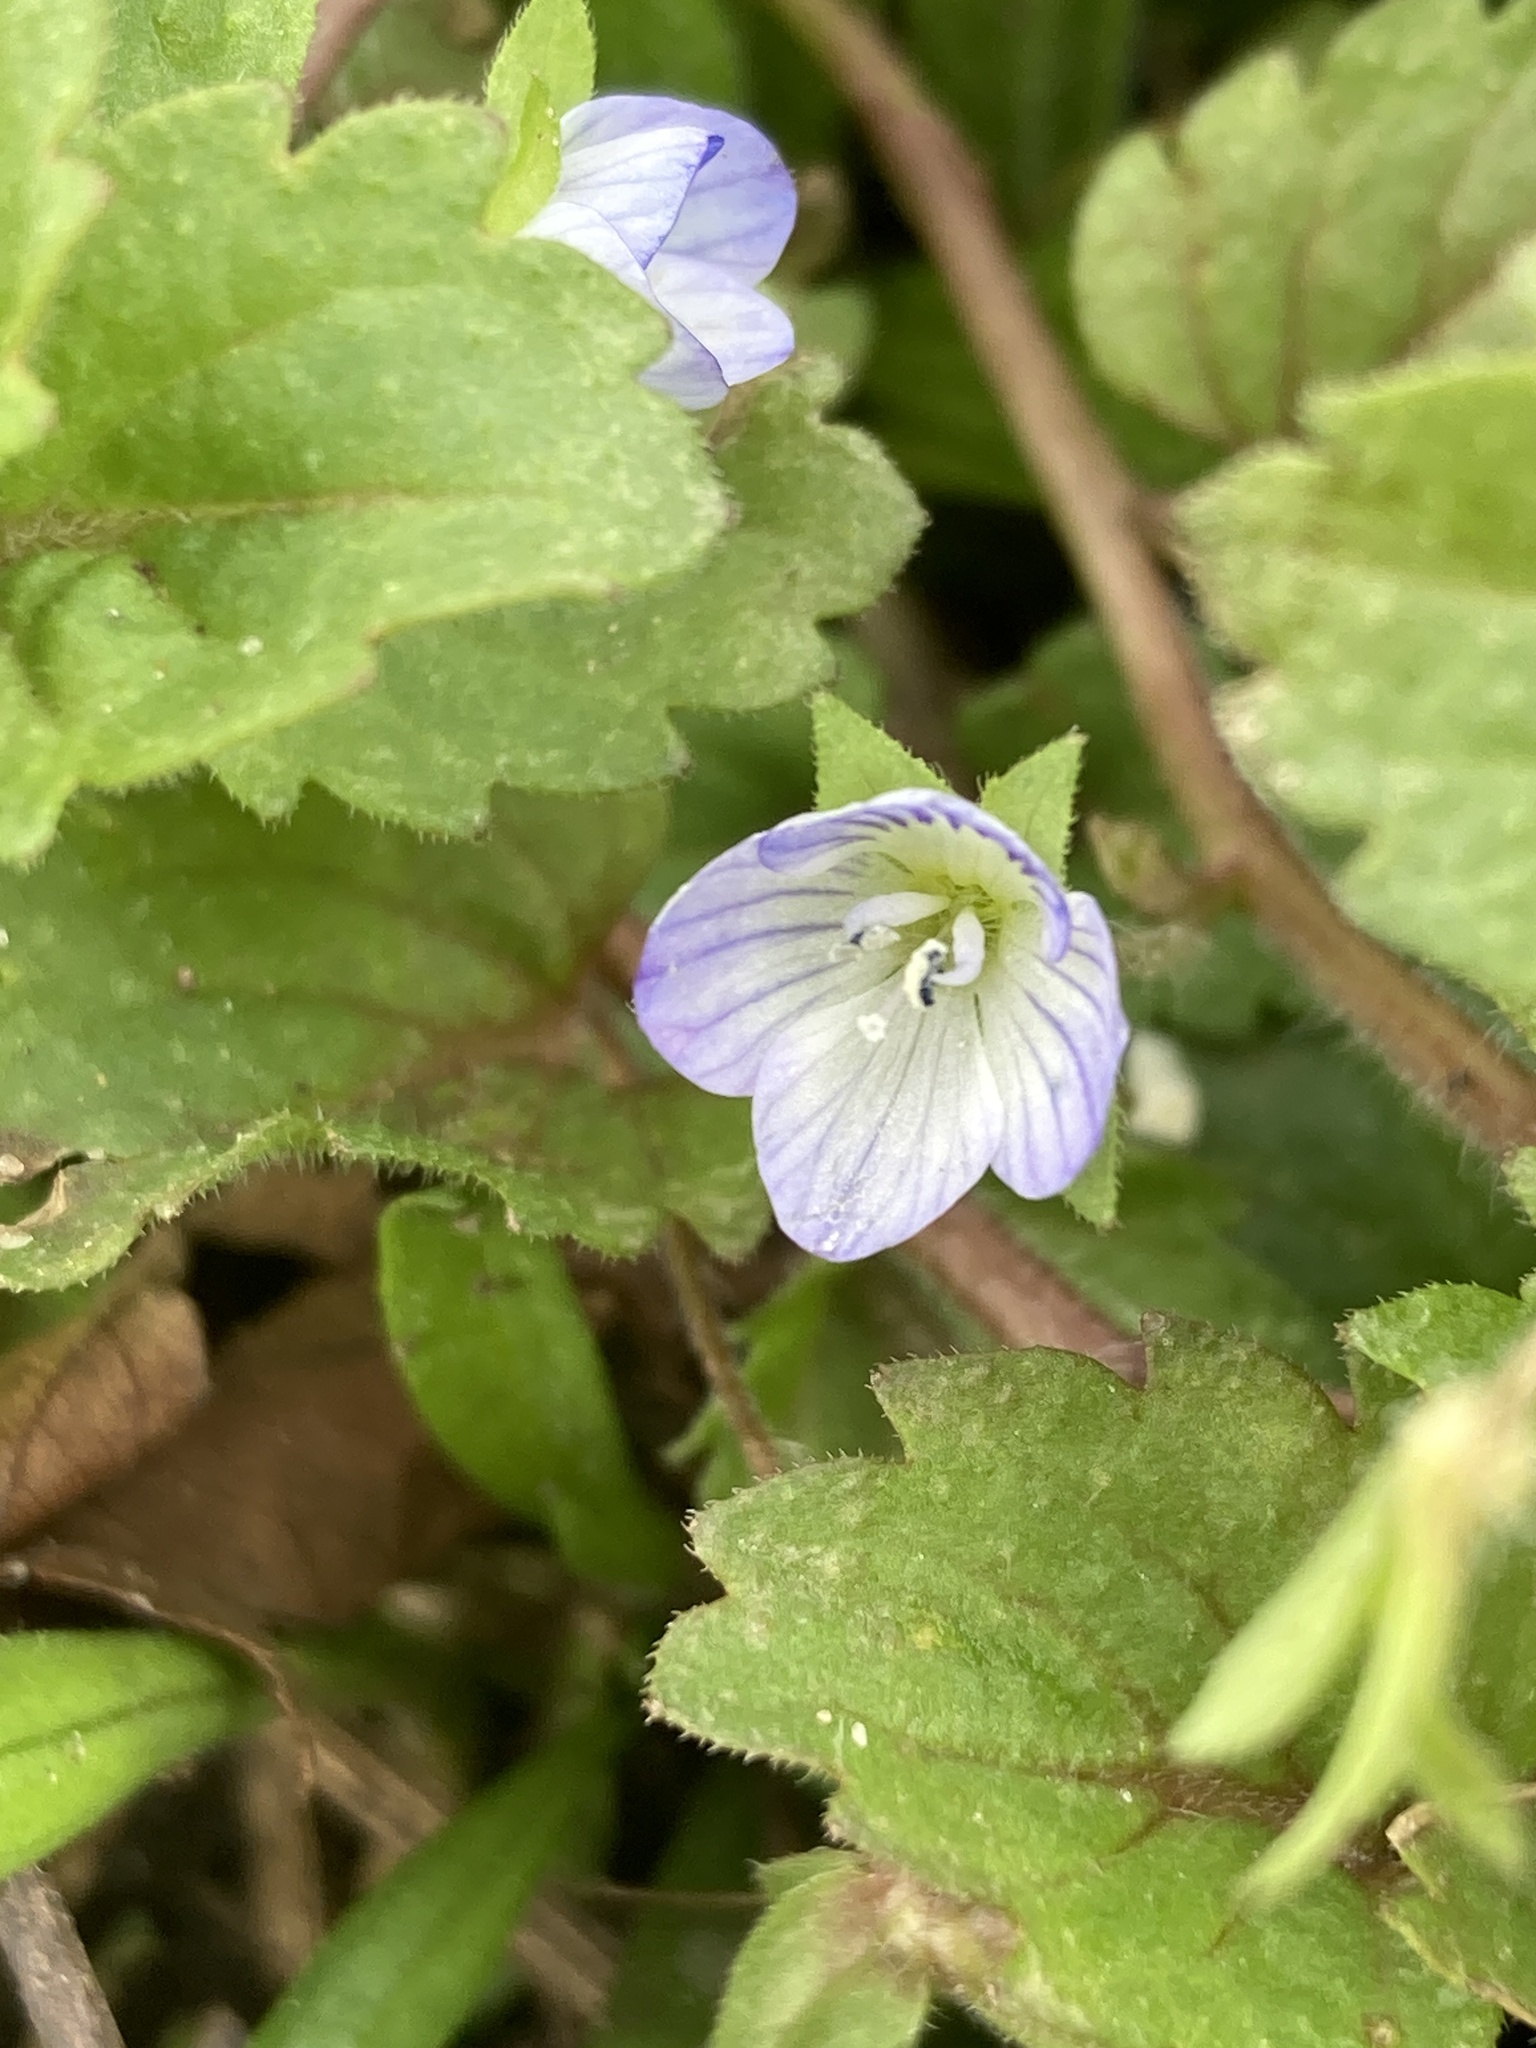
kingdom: Plantae
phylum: Tracheophyta
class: Magnoliopsida
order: Lamiales
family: Plantaginaceae
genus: Veronica
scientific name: Veronica persica
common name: Common field-speedwell
